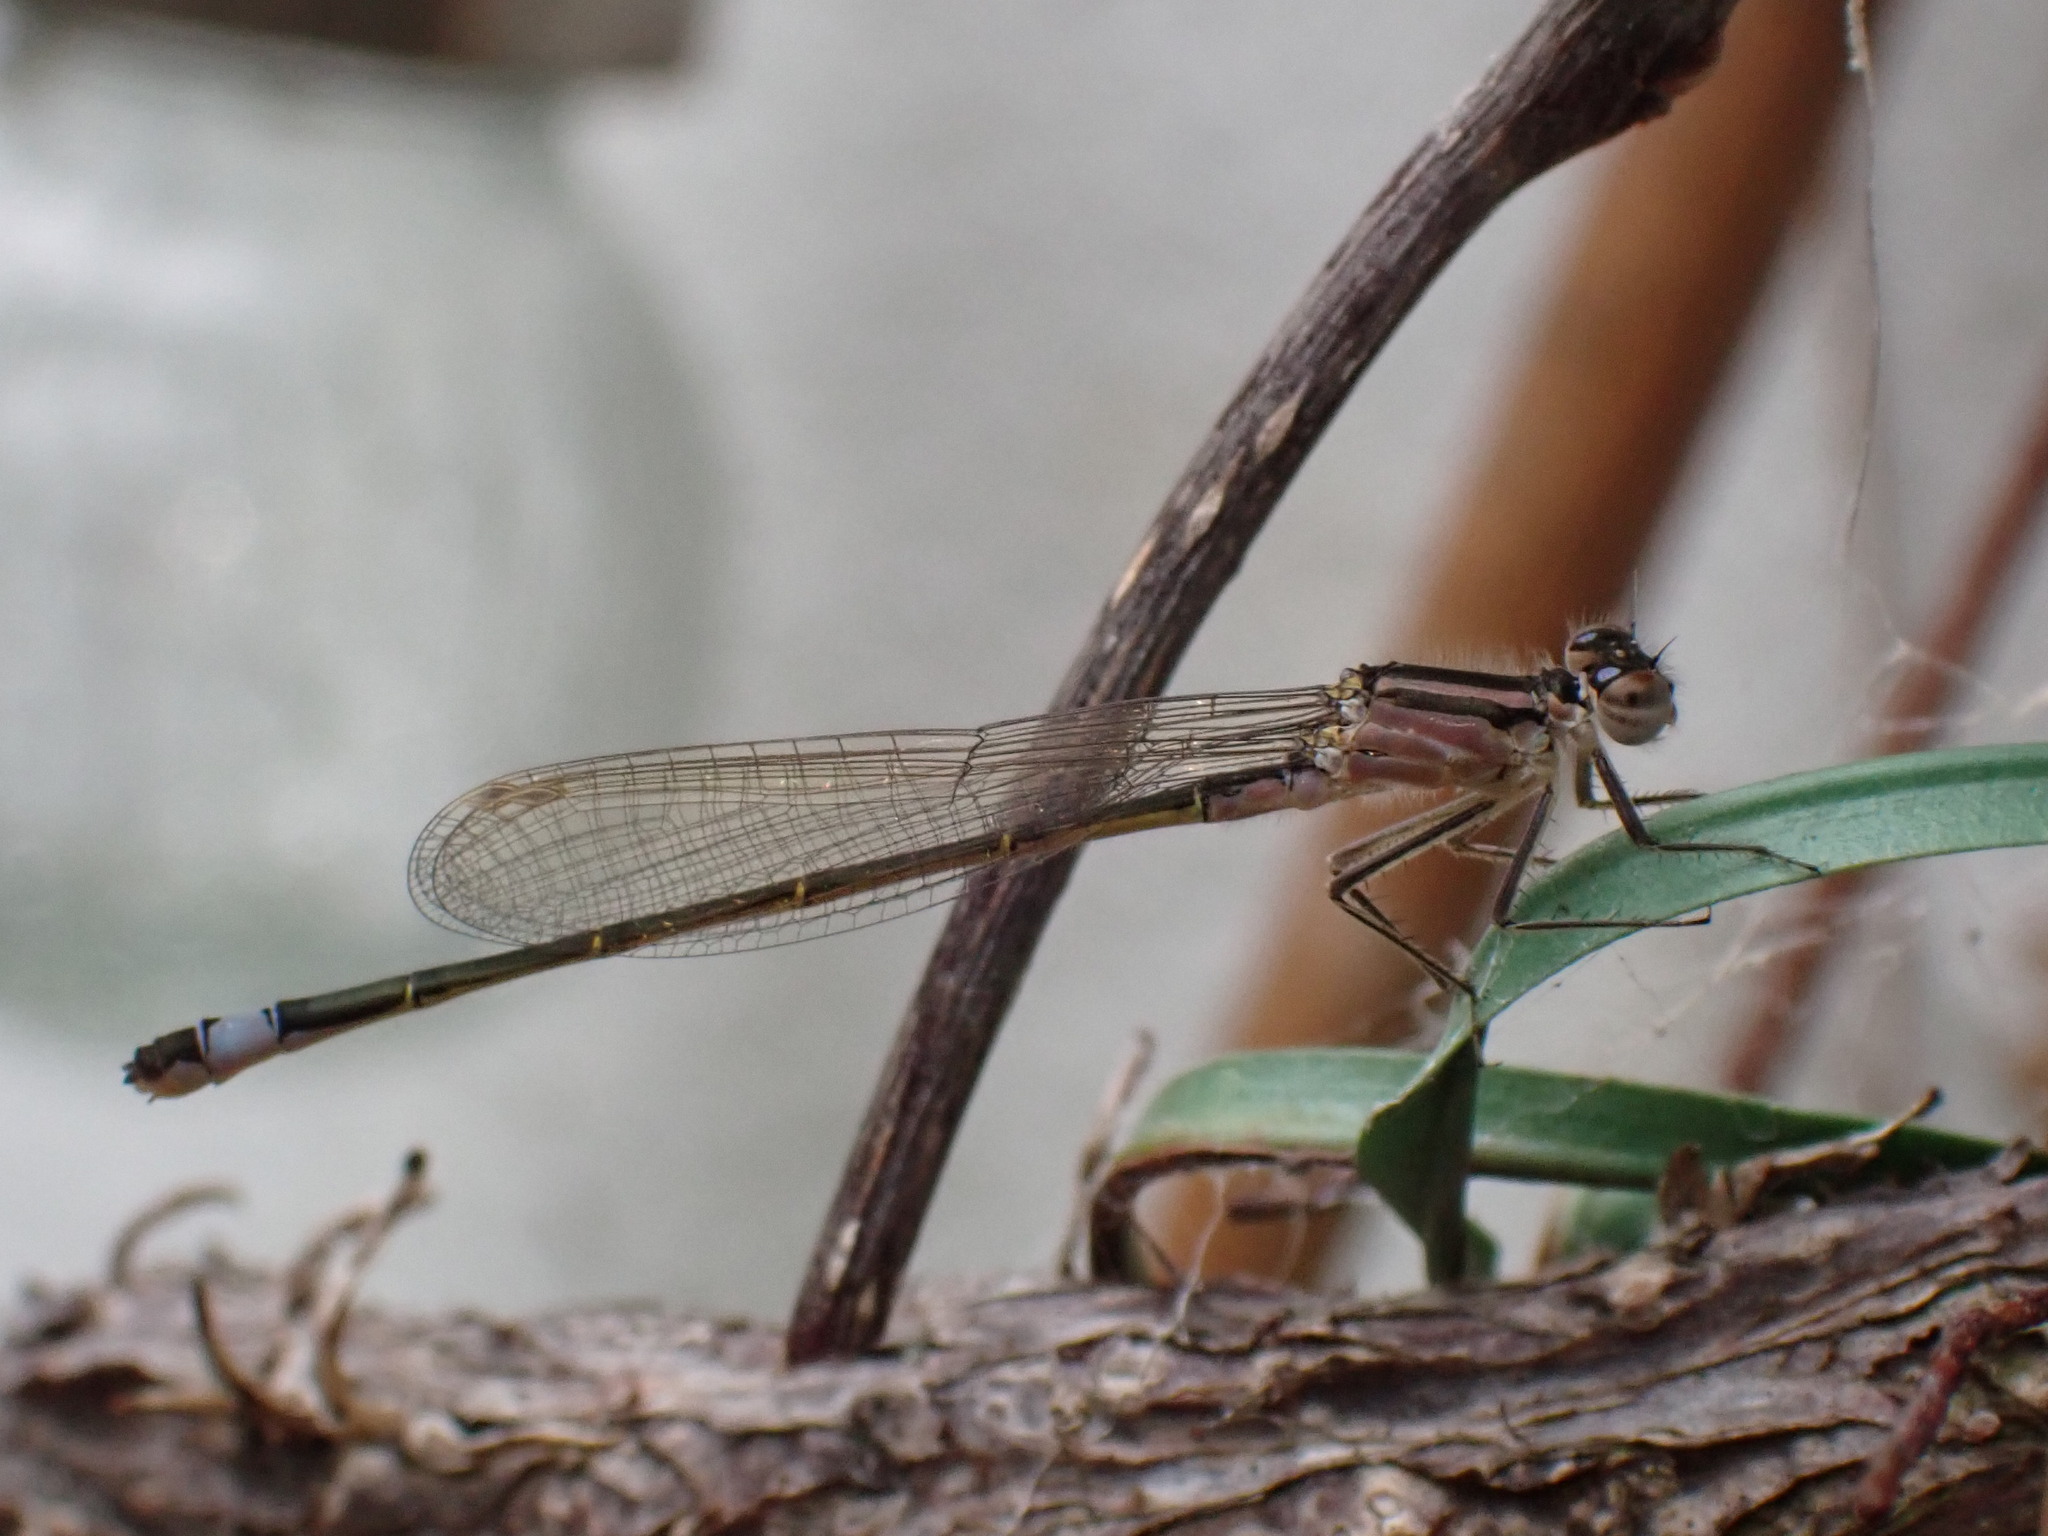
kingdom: Animalia
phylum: Arthropoda
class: Insecta
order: Odonata
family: Coenagrionidae
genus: Ischnura
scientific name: Ischnura elegans
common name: Blue-tailed damselfly
